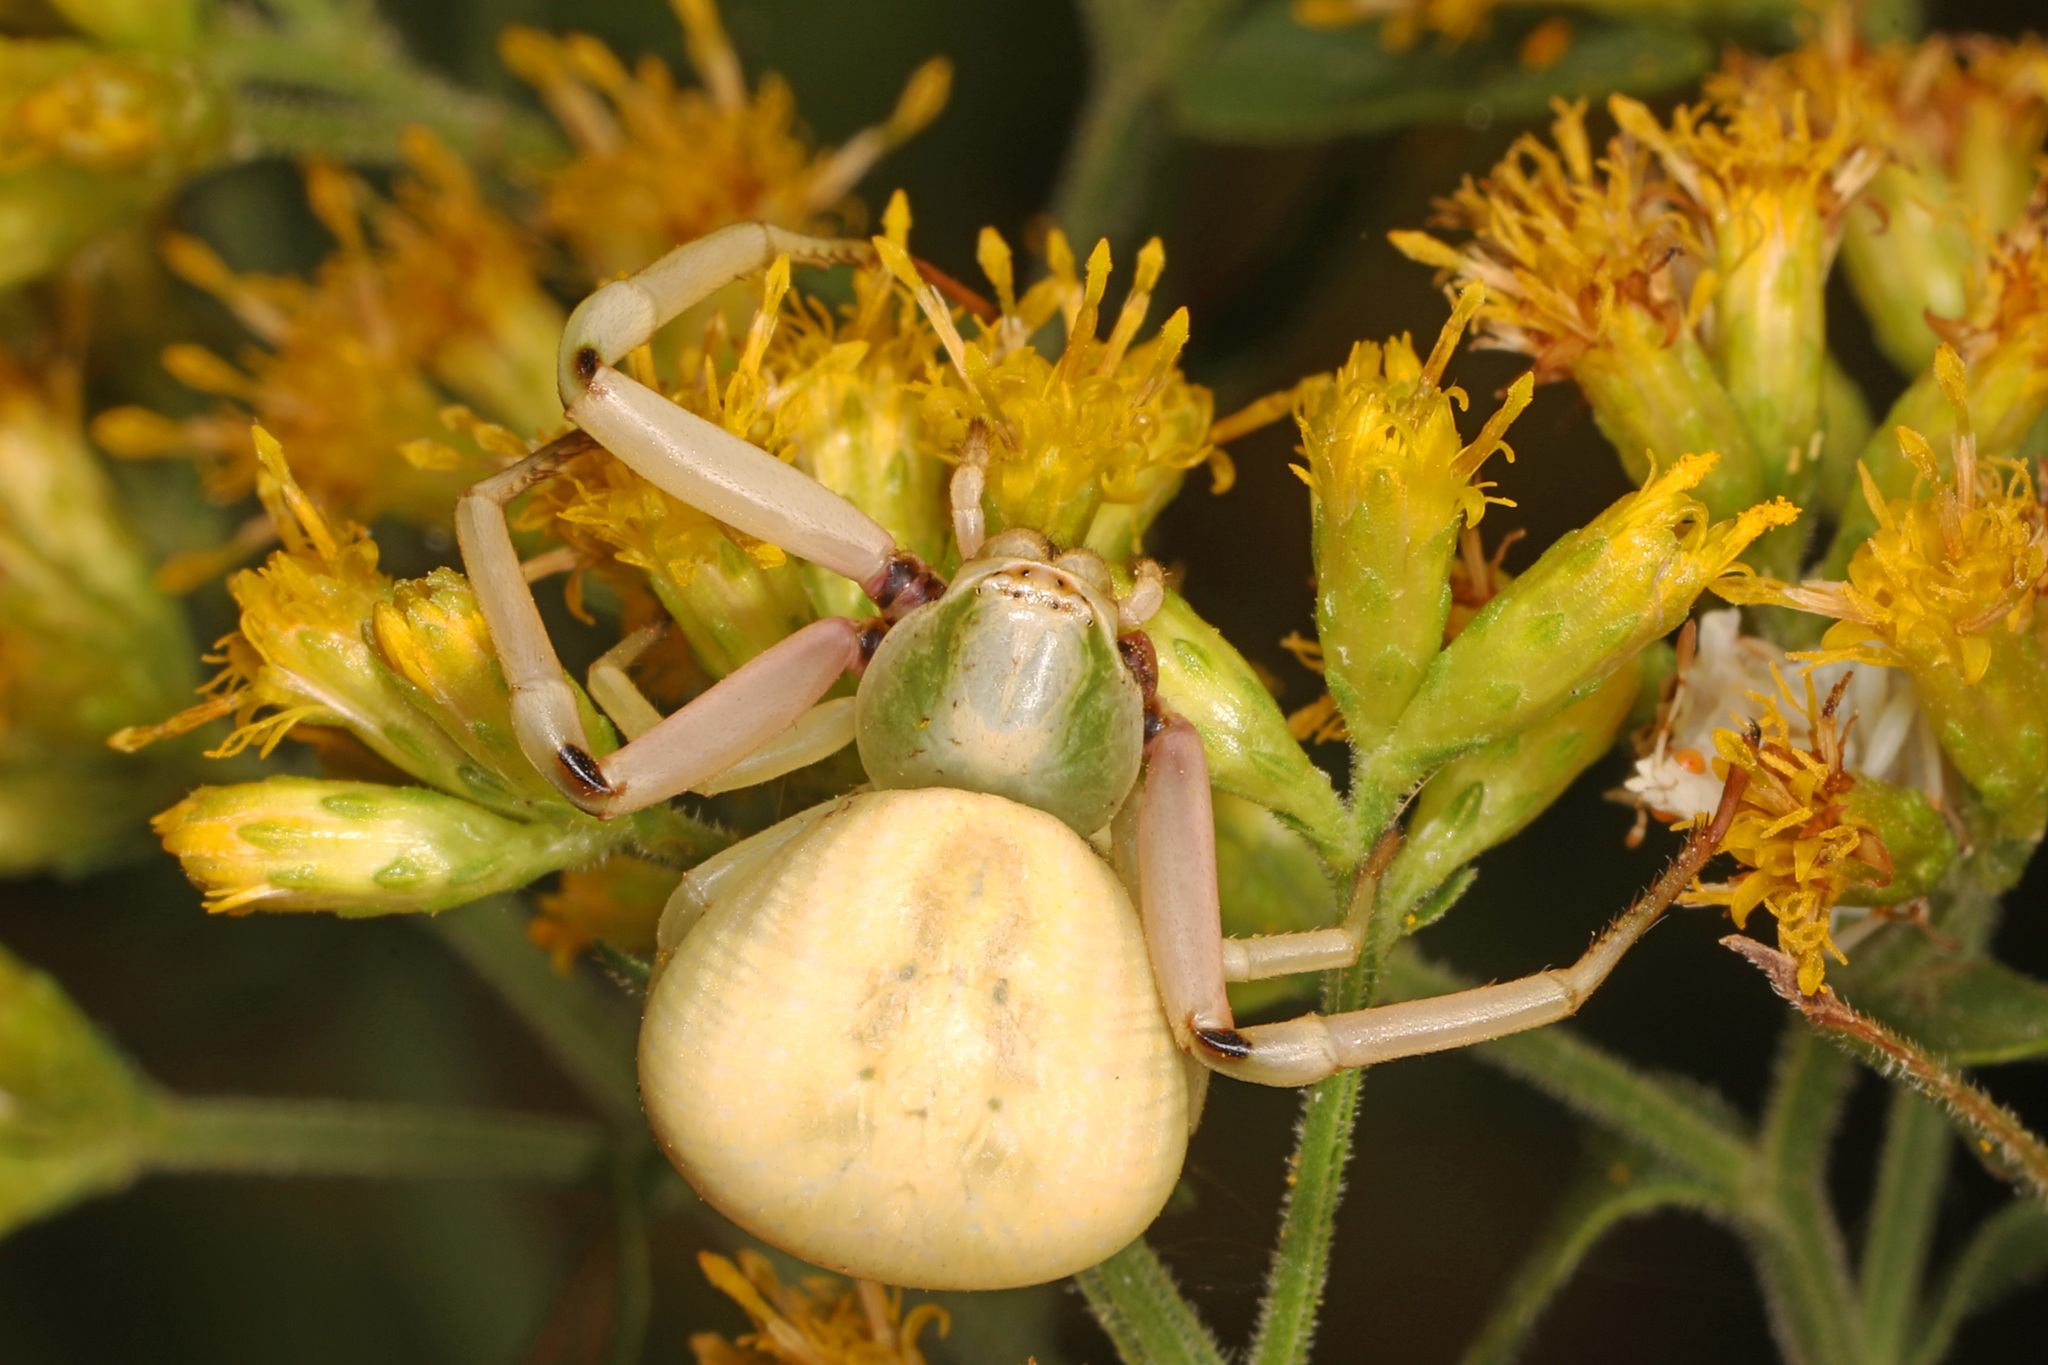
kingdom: Animalia
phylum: Arthropoda
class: Arachnida
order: Araneae
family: Thomisidae
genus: Misumenoides
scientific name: Misumenoides formosipes
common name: White-banded crab spider
